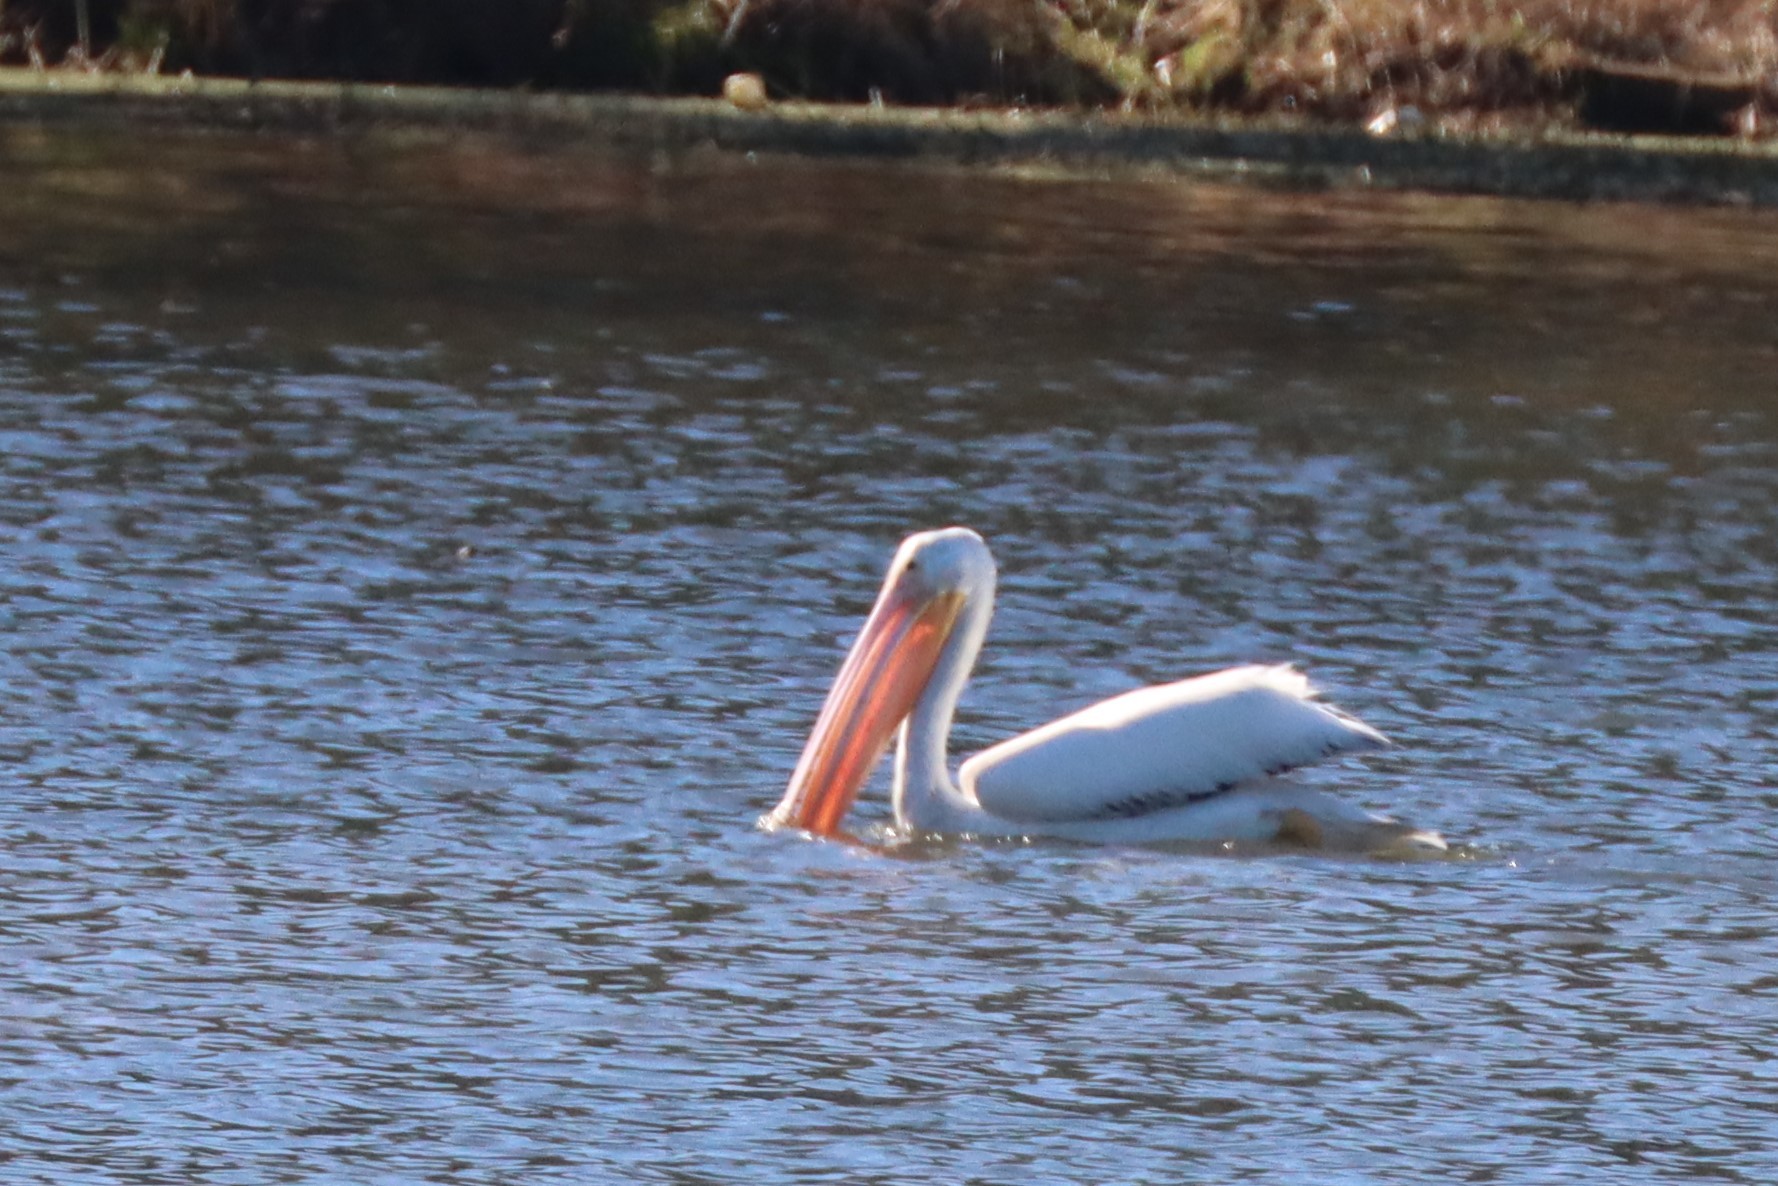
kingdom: Animalia
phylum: Chordata
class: Aves
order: Pelecaniformes
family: Pelecanidae
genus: Pelecanus
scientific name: Pelecanus erythrorhynchos
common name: American white pelican
